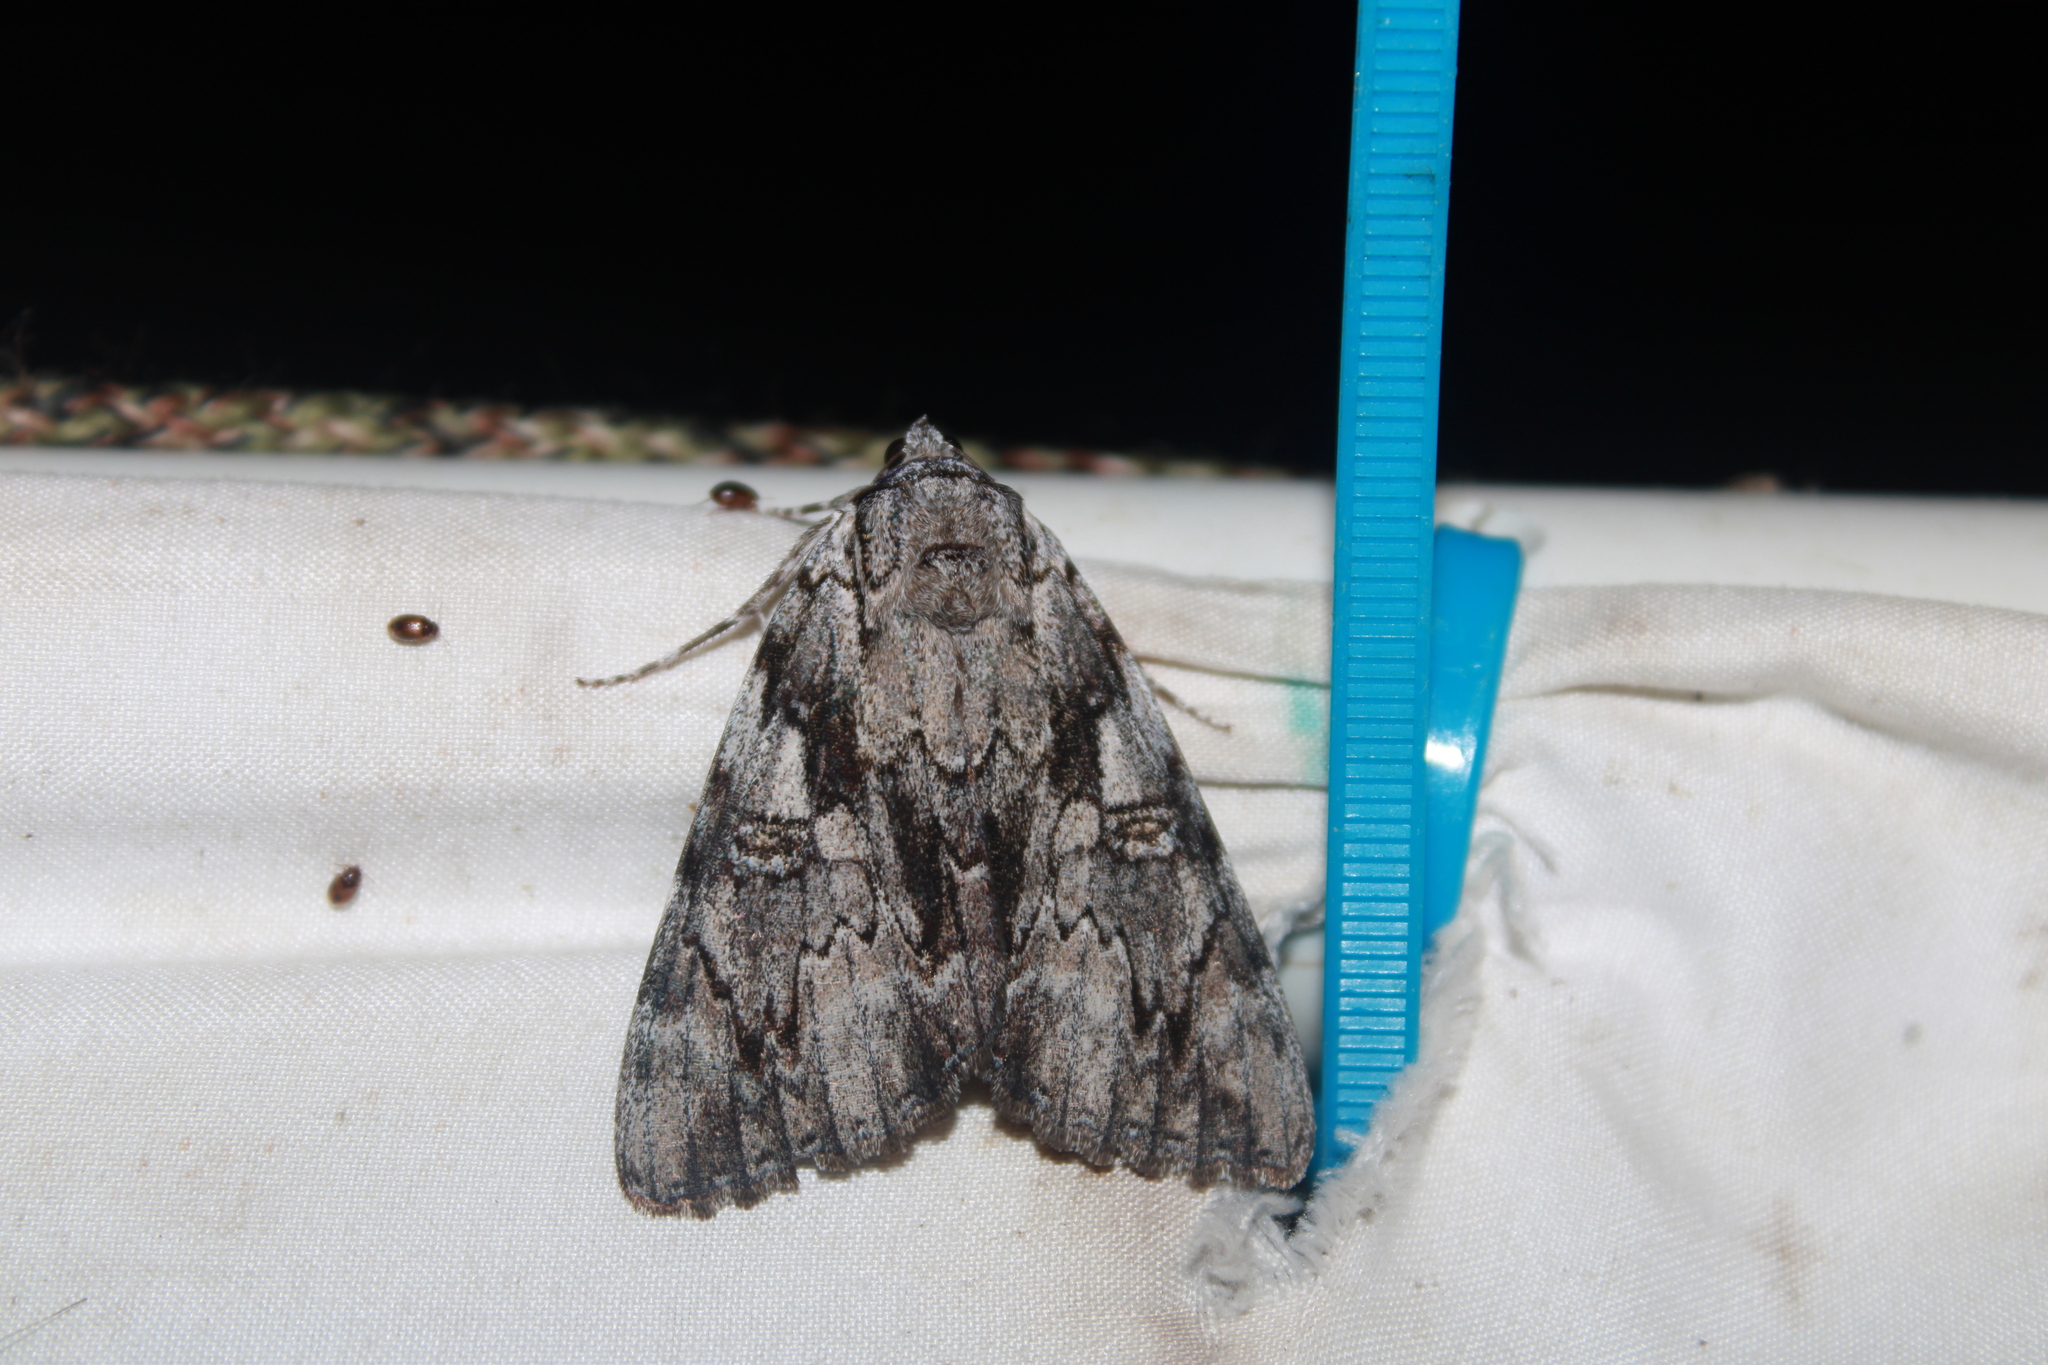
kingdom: Animalia
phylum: Arthropoda
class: Insecta
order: Lepidoptera
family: Erebidae
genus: Catocala
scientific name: Catocala dejecta
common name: Dejected underwing
